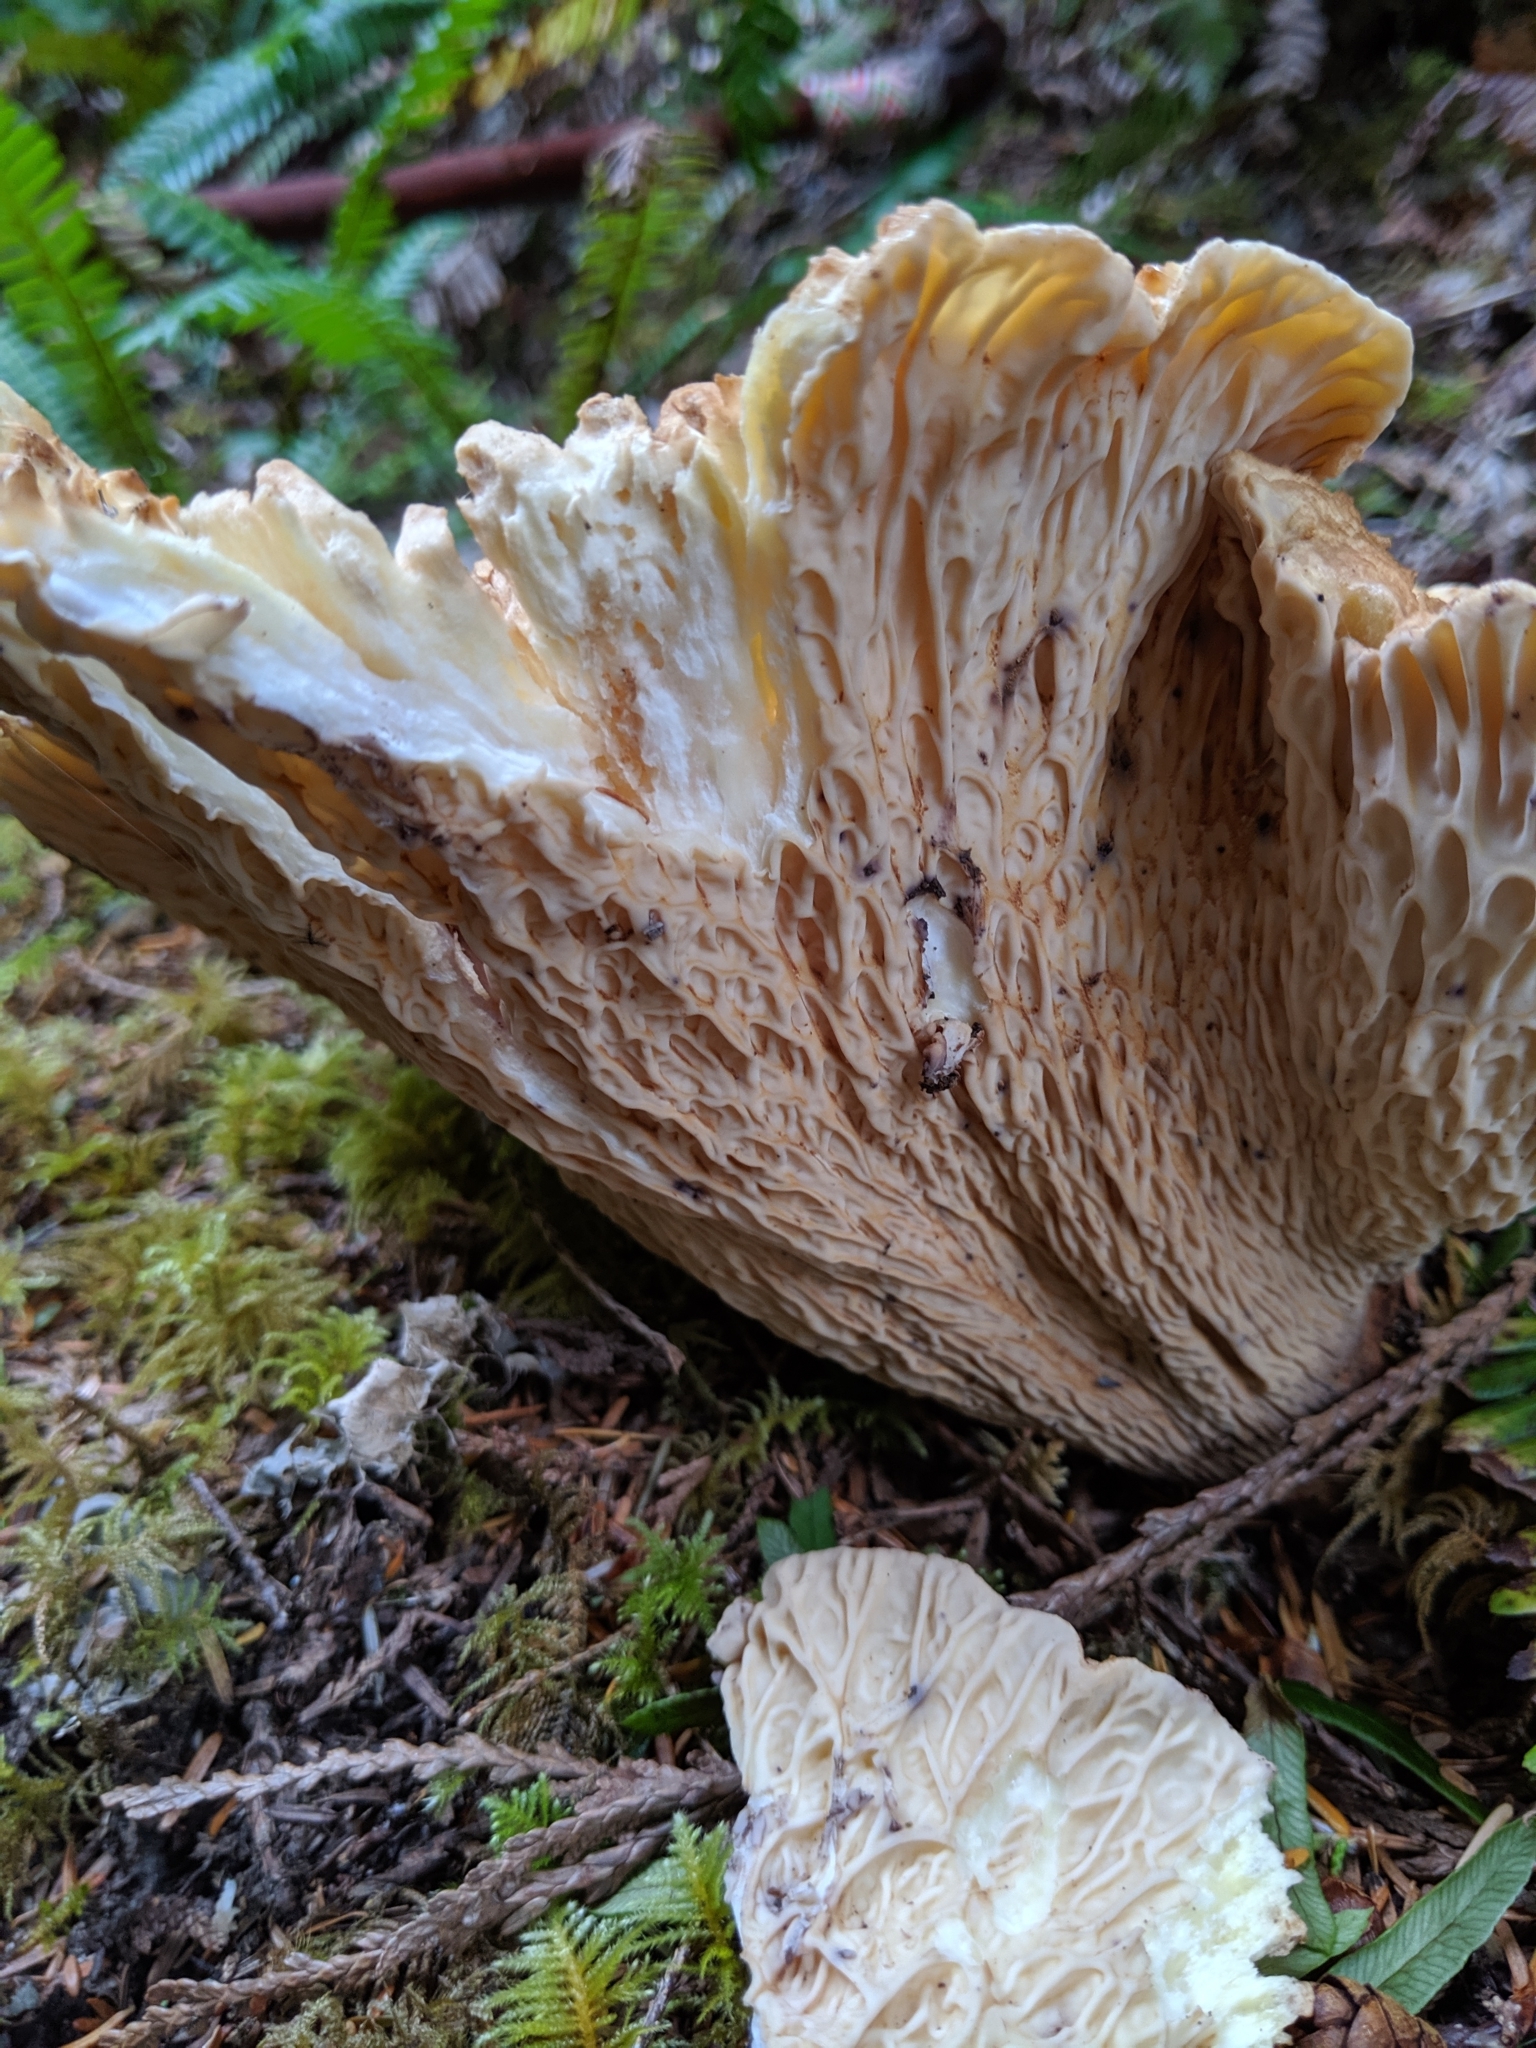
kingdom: Fungi
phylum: Basidiomycota
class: Agaricomycetes
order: Gomphales
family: Gomphaceae
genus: Turbinellus
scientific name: Turbinellus kauffmanii
